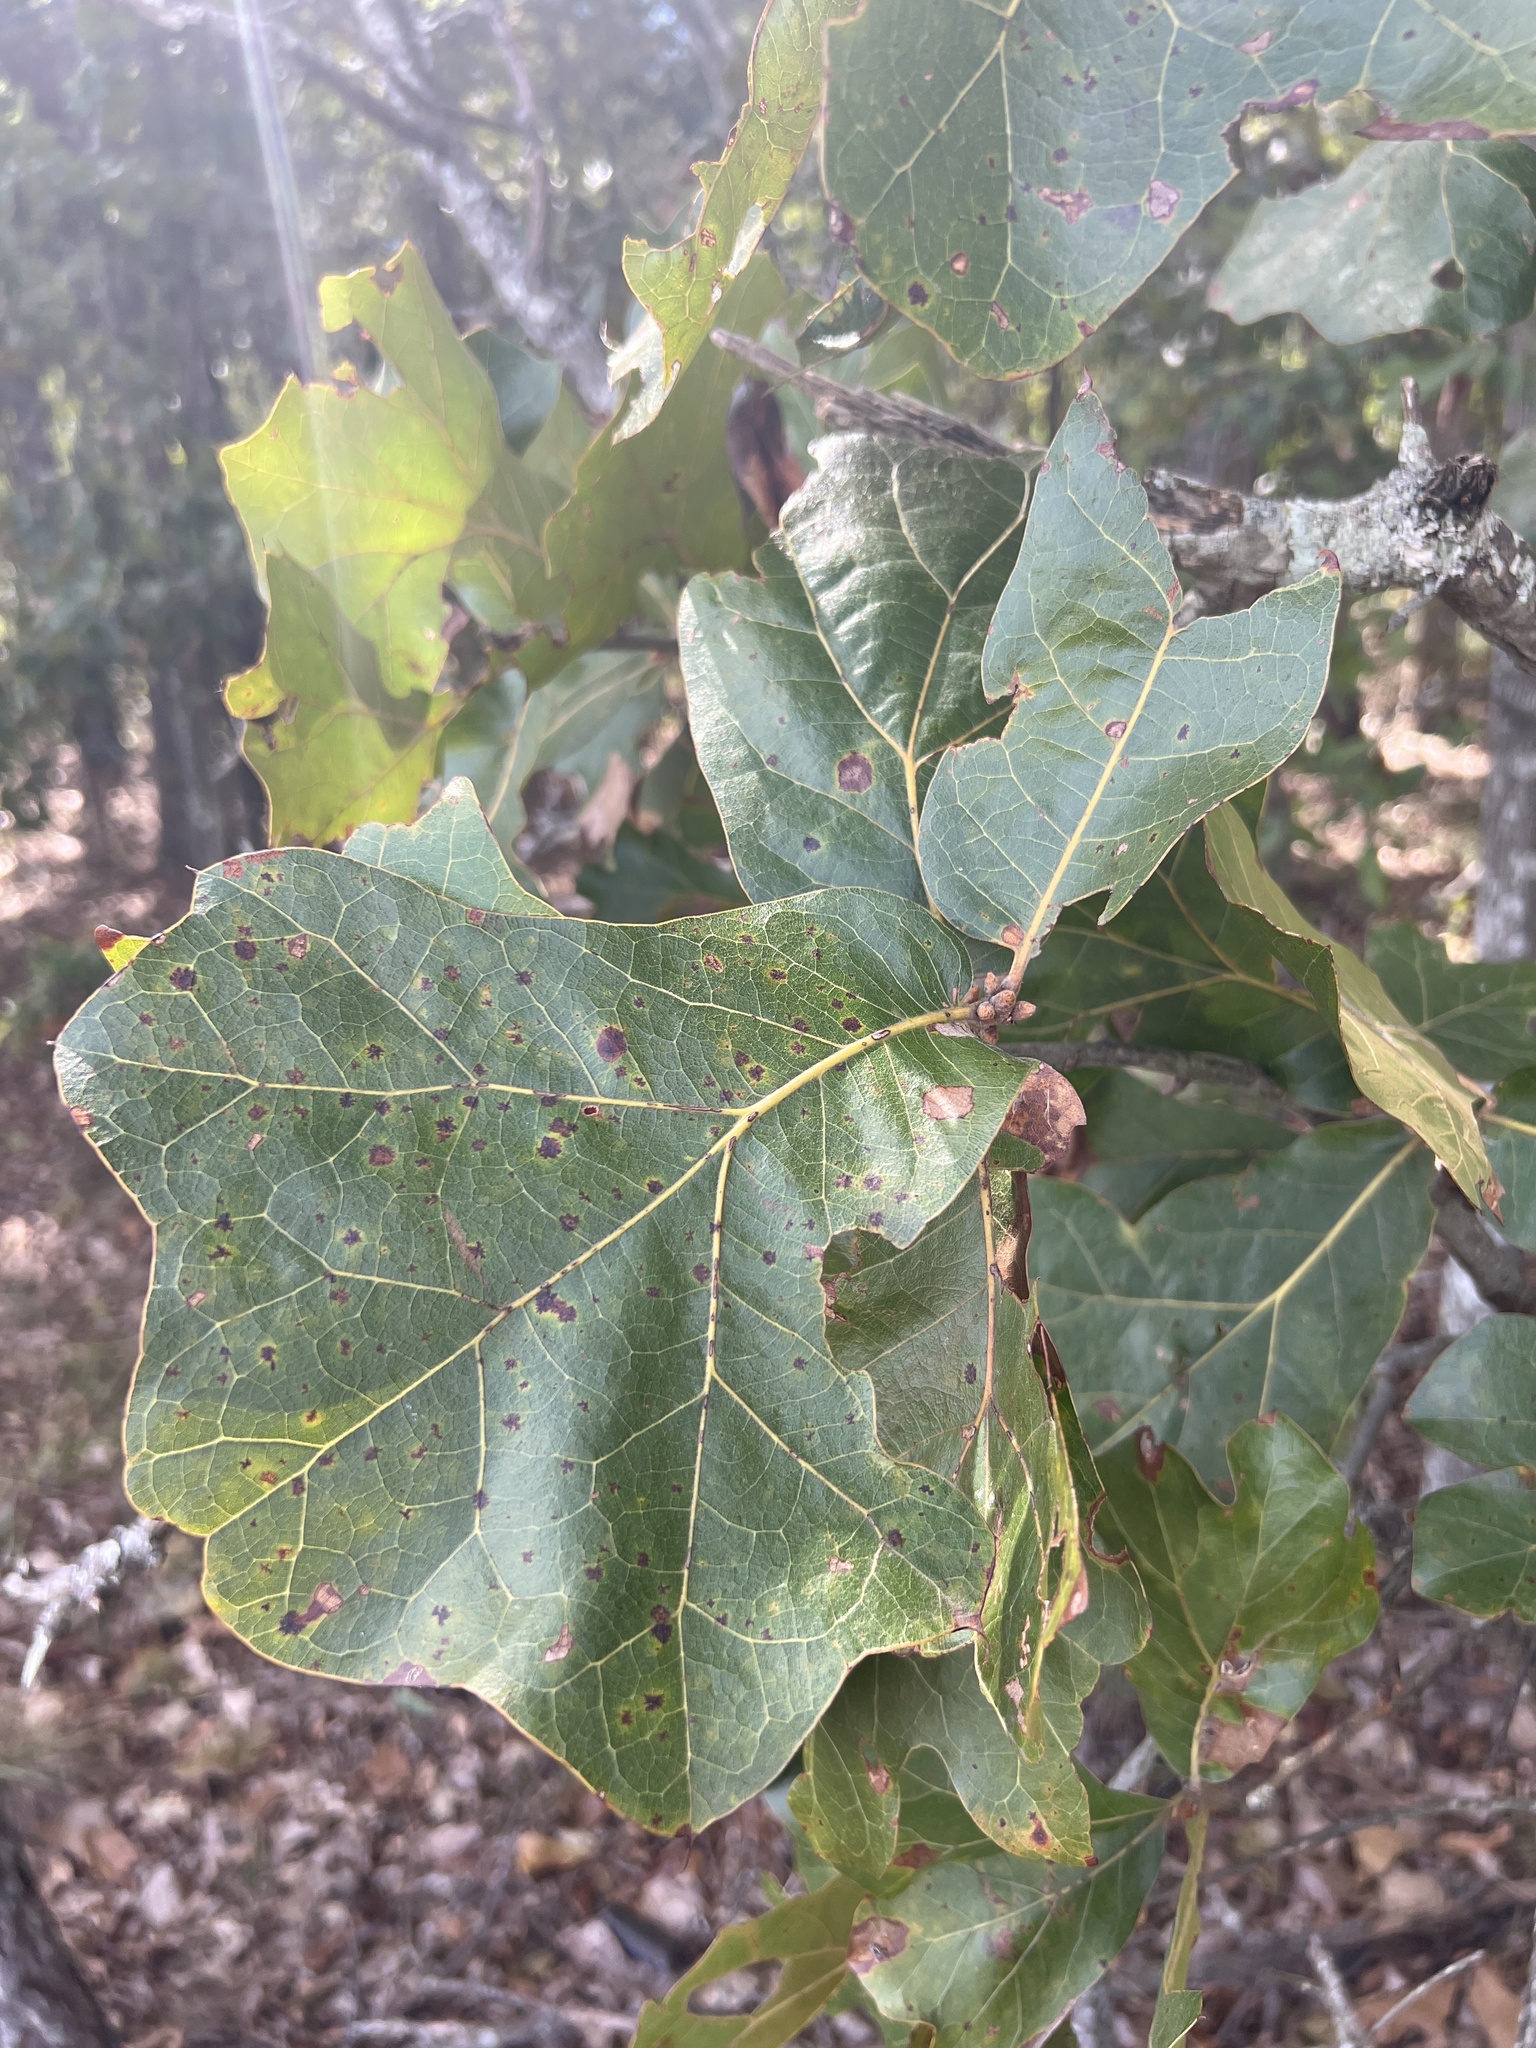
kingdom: Plantae
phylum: Tracheophyta
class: Magnoliopsida
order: Fagales
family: Fagaceae
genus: Quercus
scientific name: Quercus marilandica
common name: Blackjack oak
